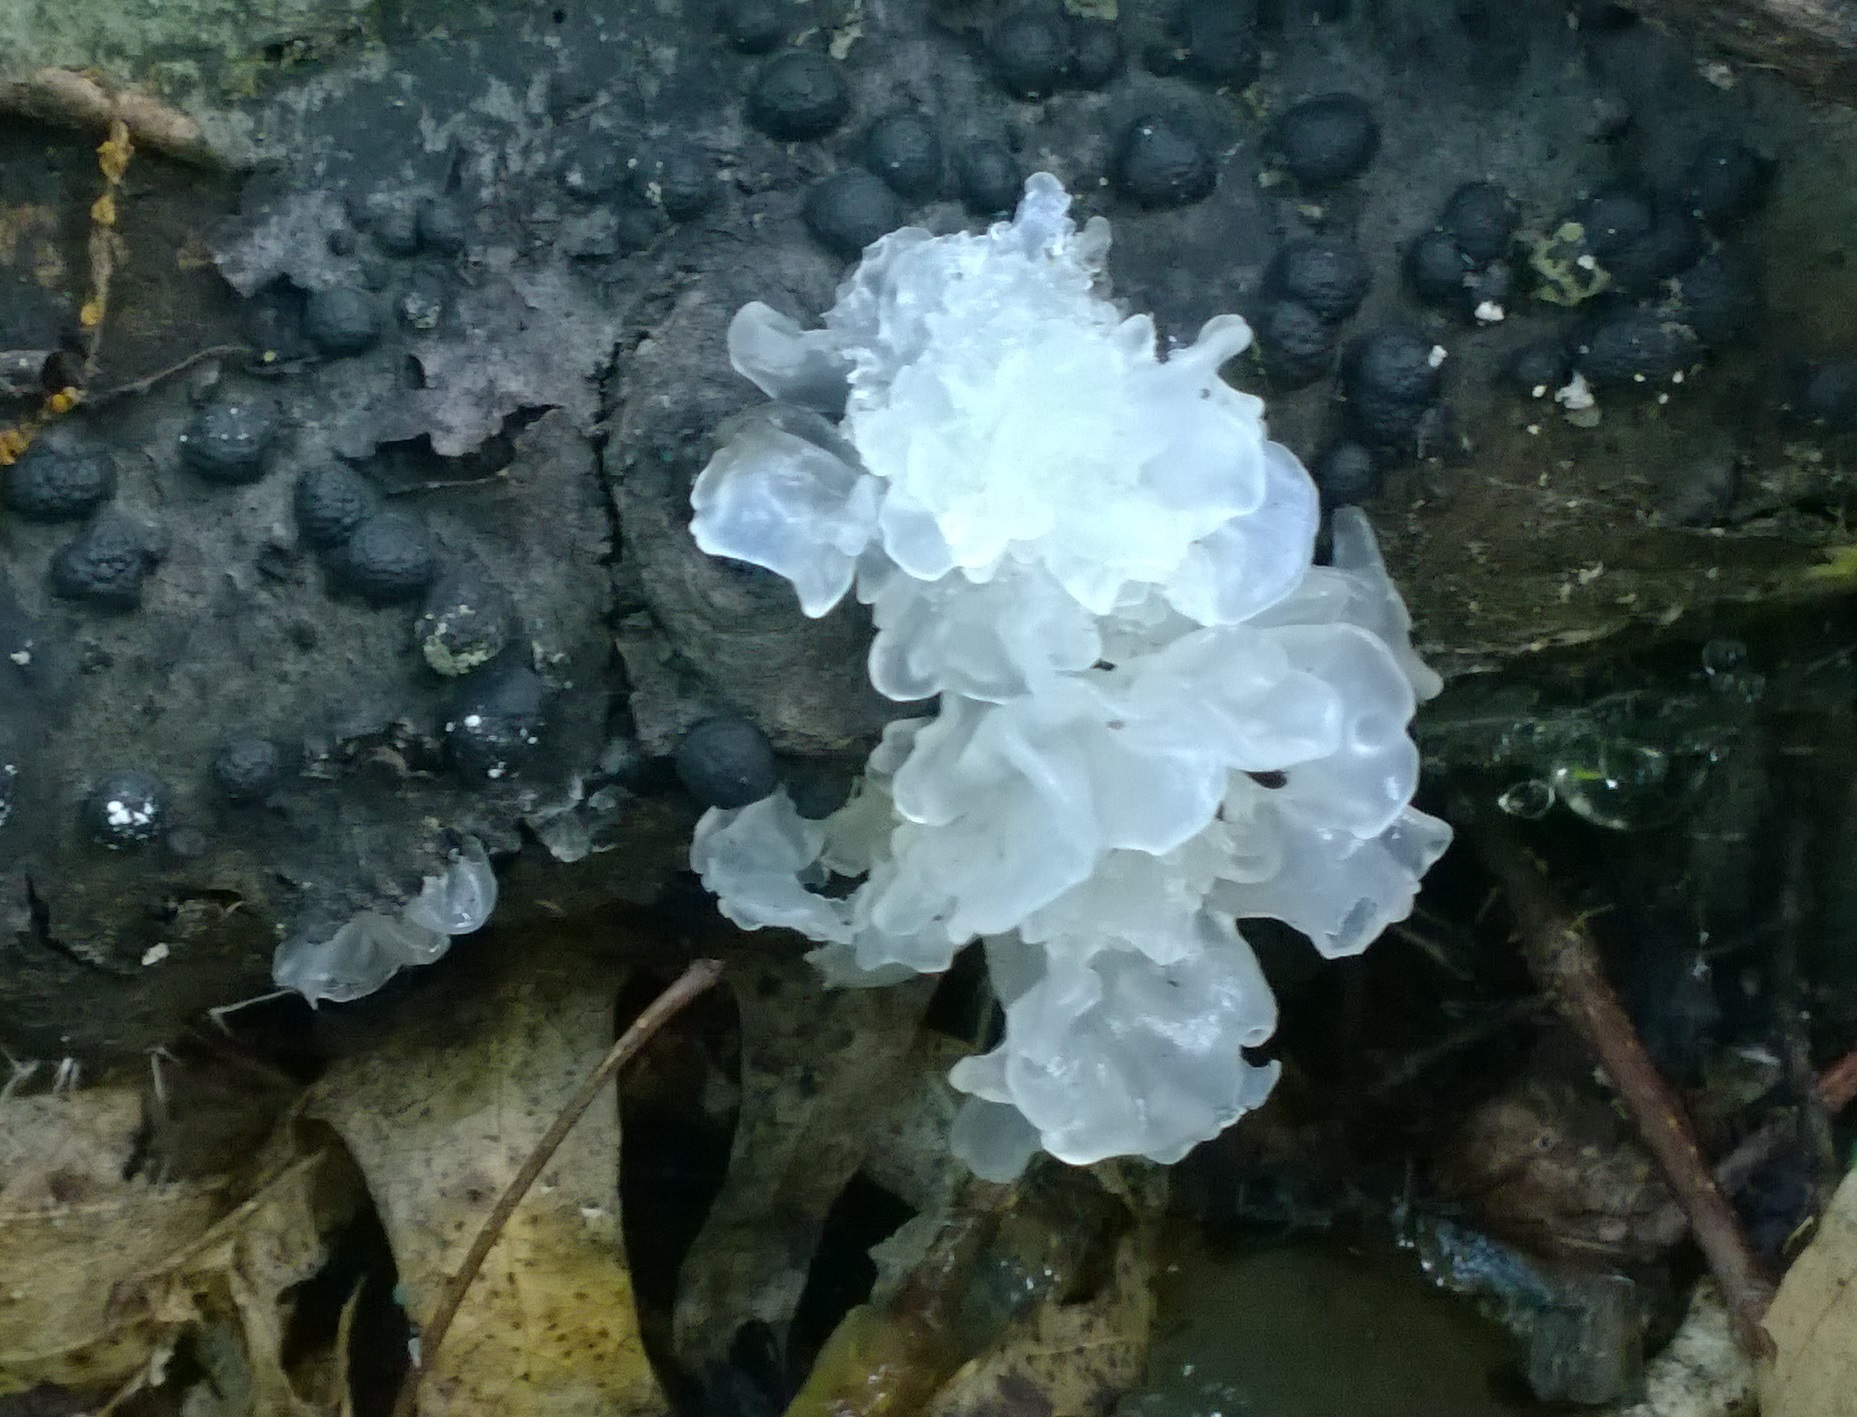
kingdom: Fungi
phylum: Basidiomycota
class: Tremellomycetes
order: Tremellales
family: Tremellaceae
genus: Tremella
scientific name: Tremella fuciformis
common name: Snow fungus
